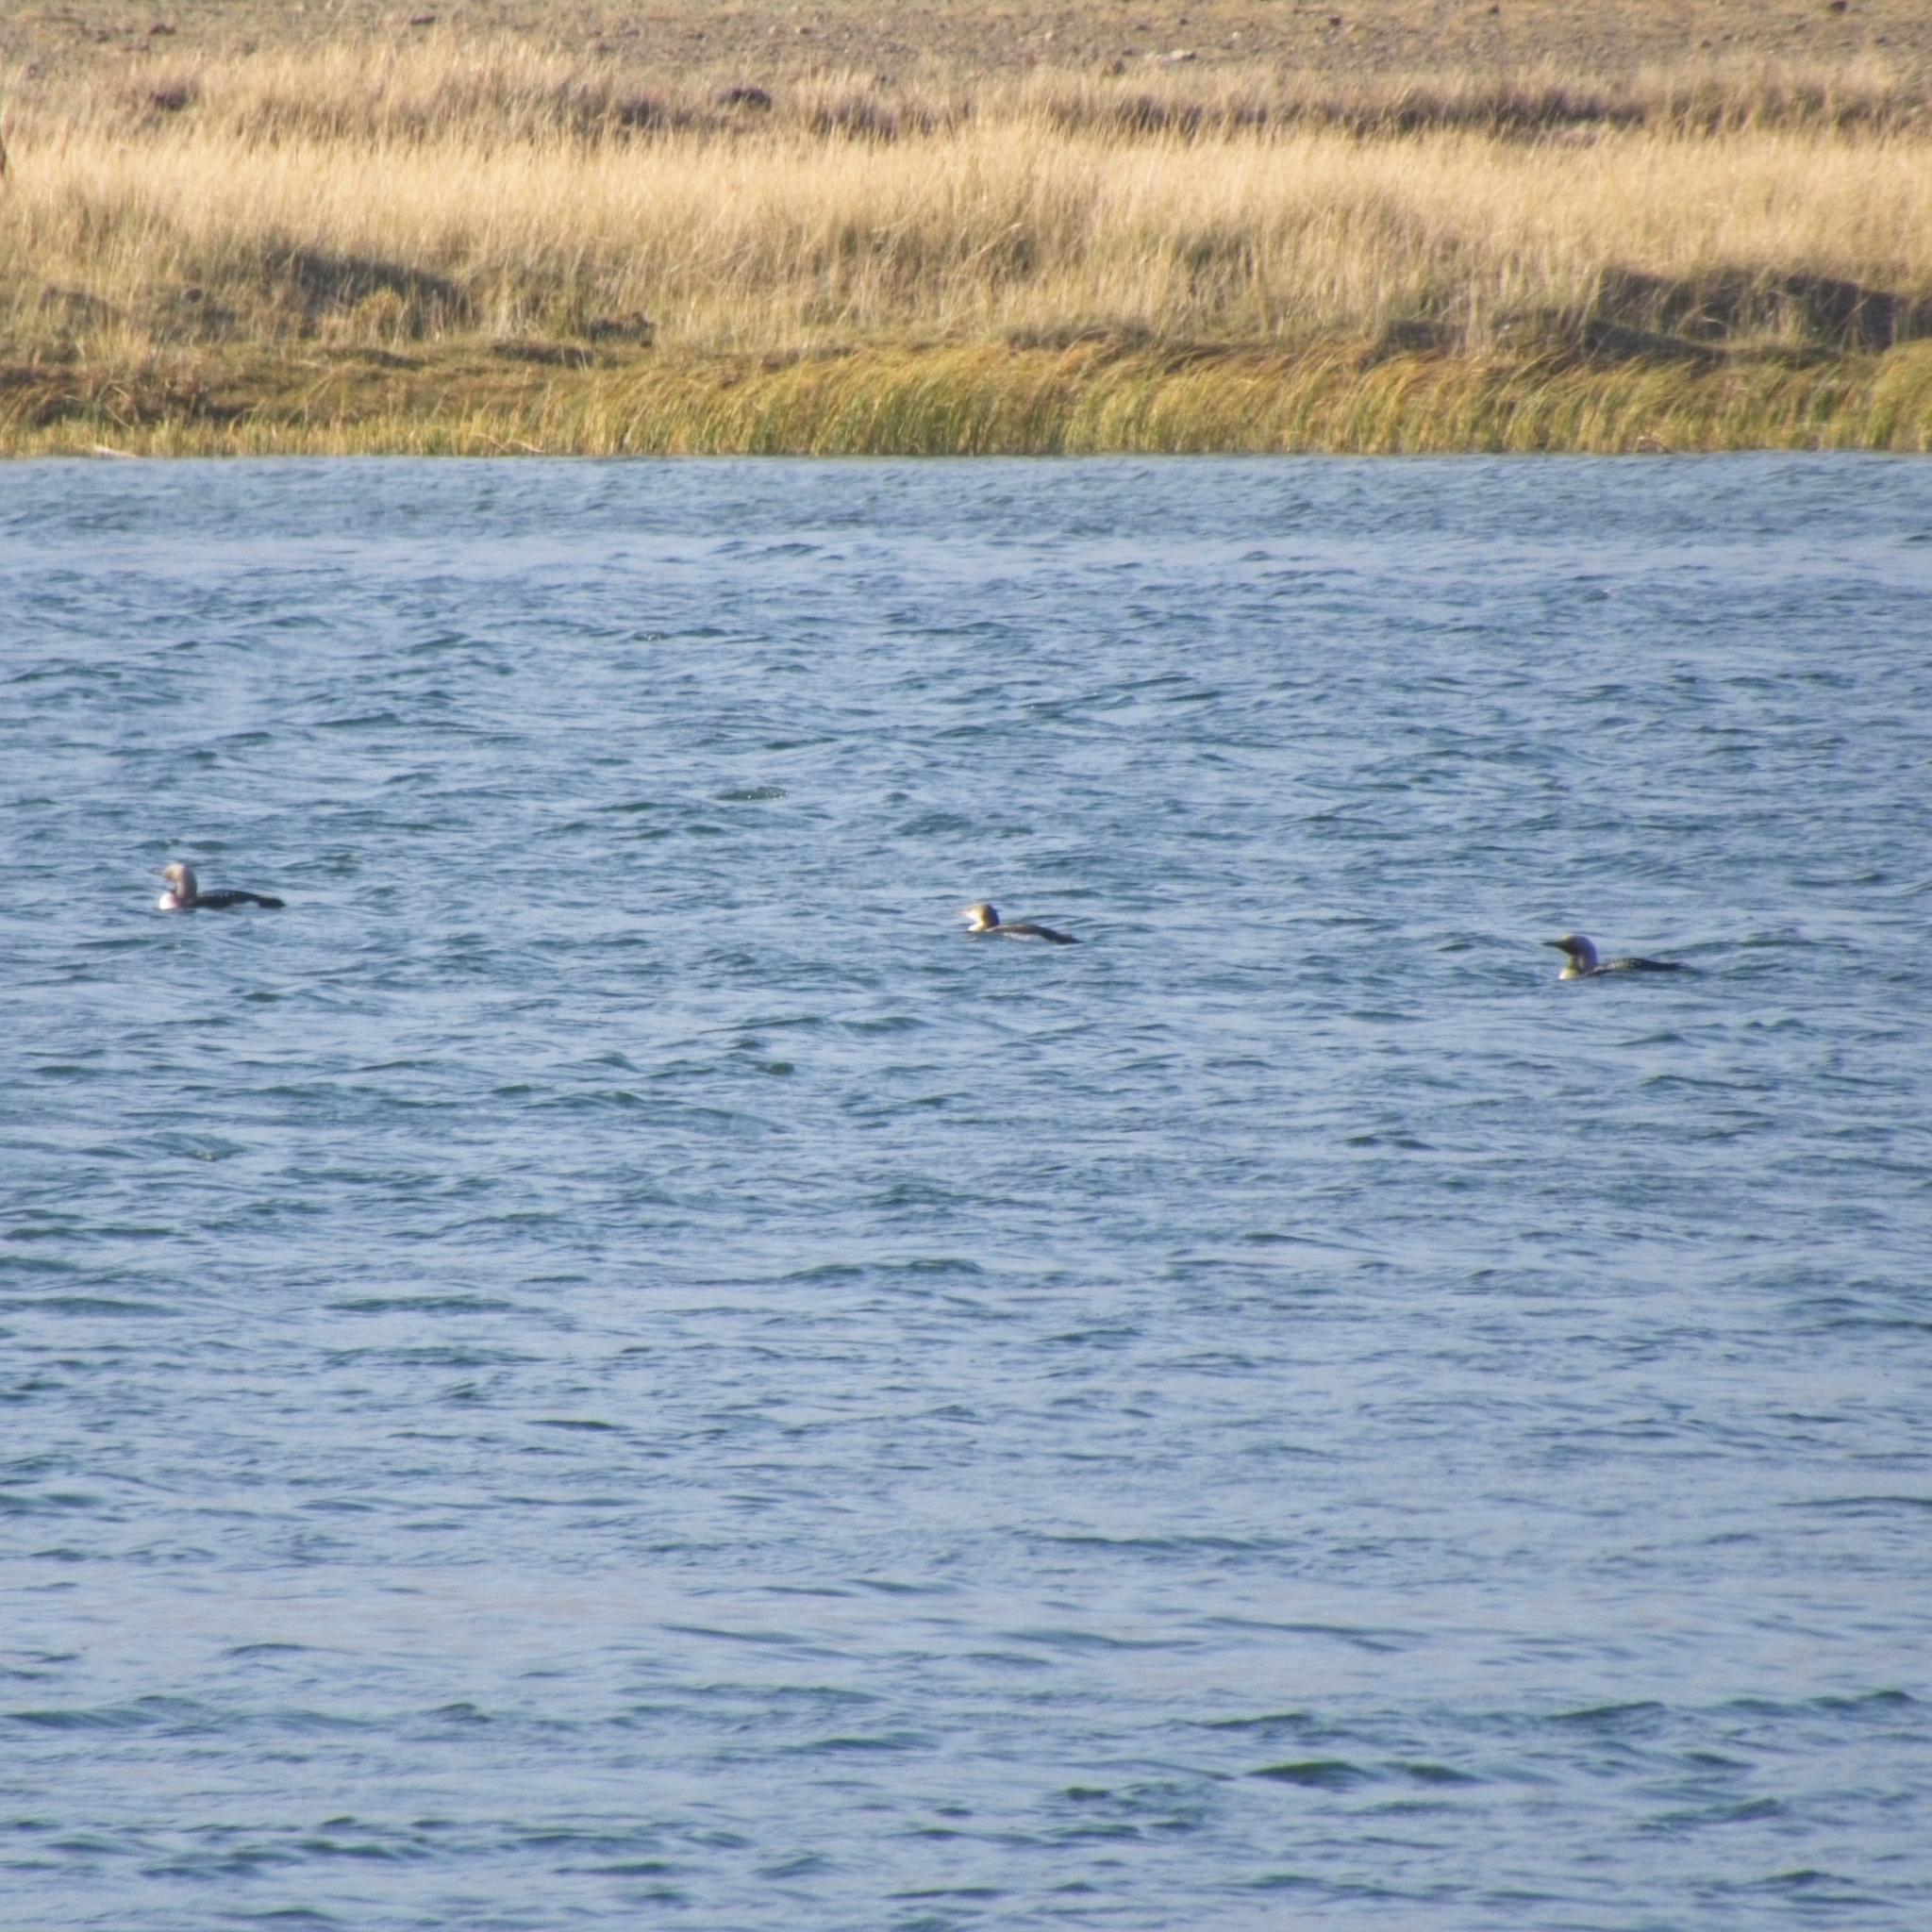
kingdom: Animalia
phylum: Chordata
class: Aves
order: Gaviiformes
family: Gaviidae
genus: Gavia
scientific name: Gavia arctica
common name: Black-throated loon
